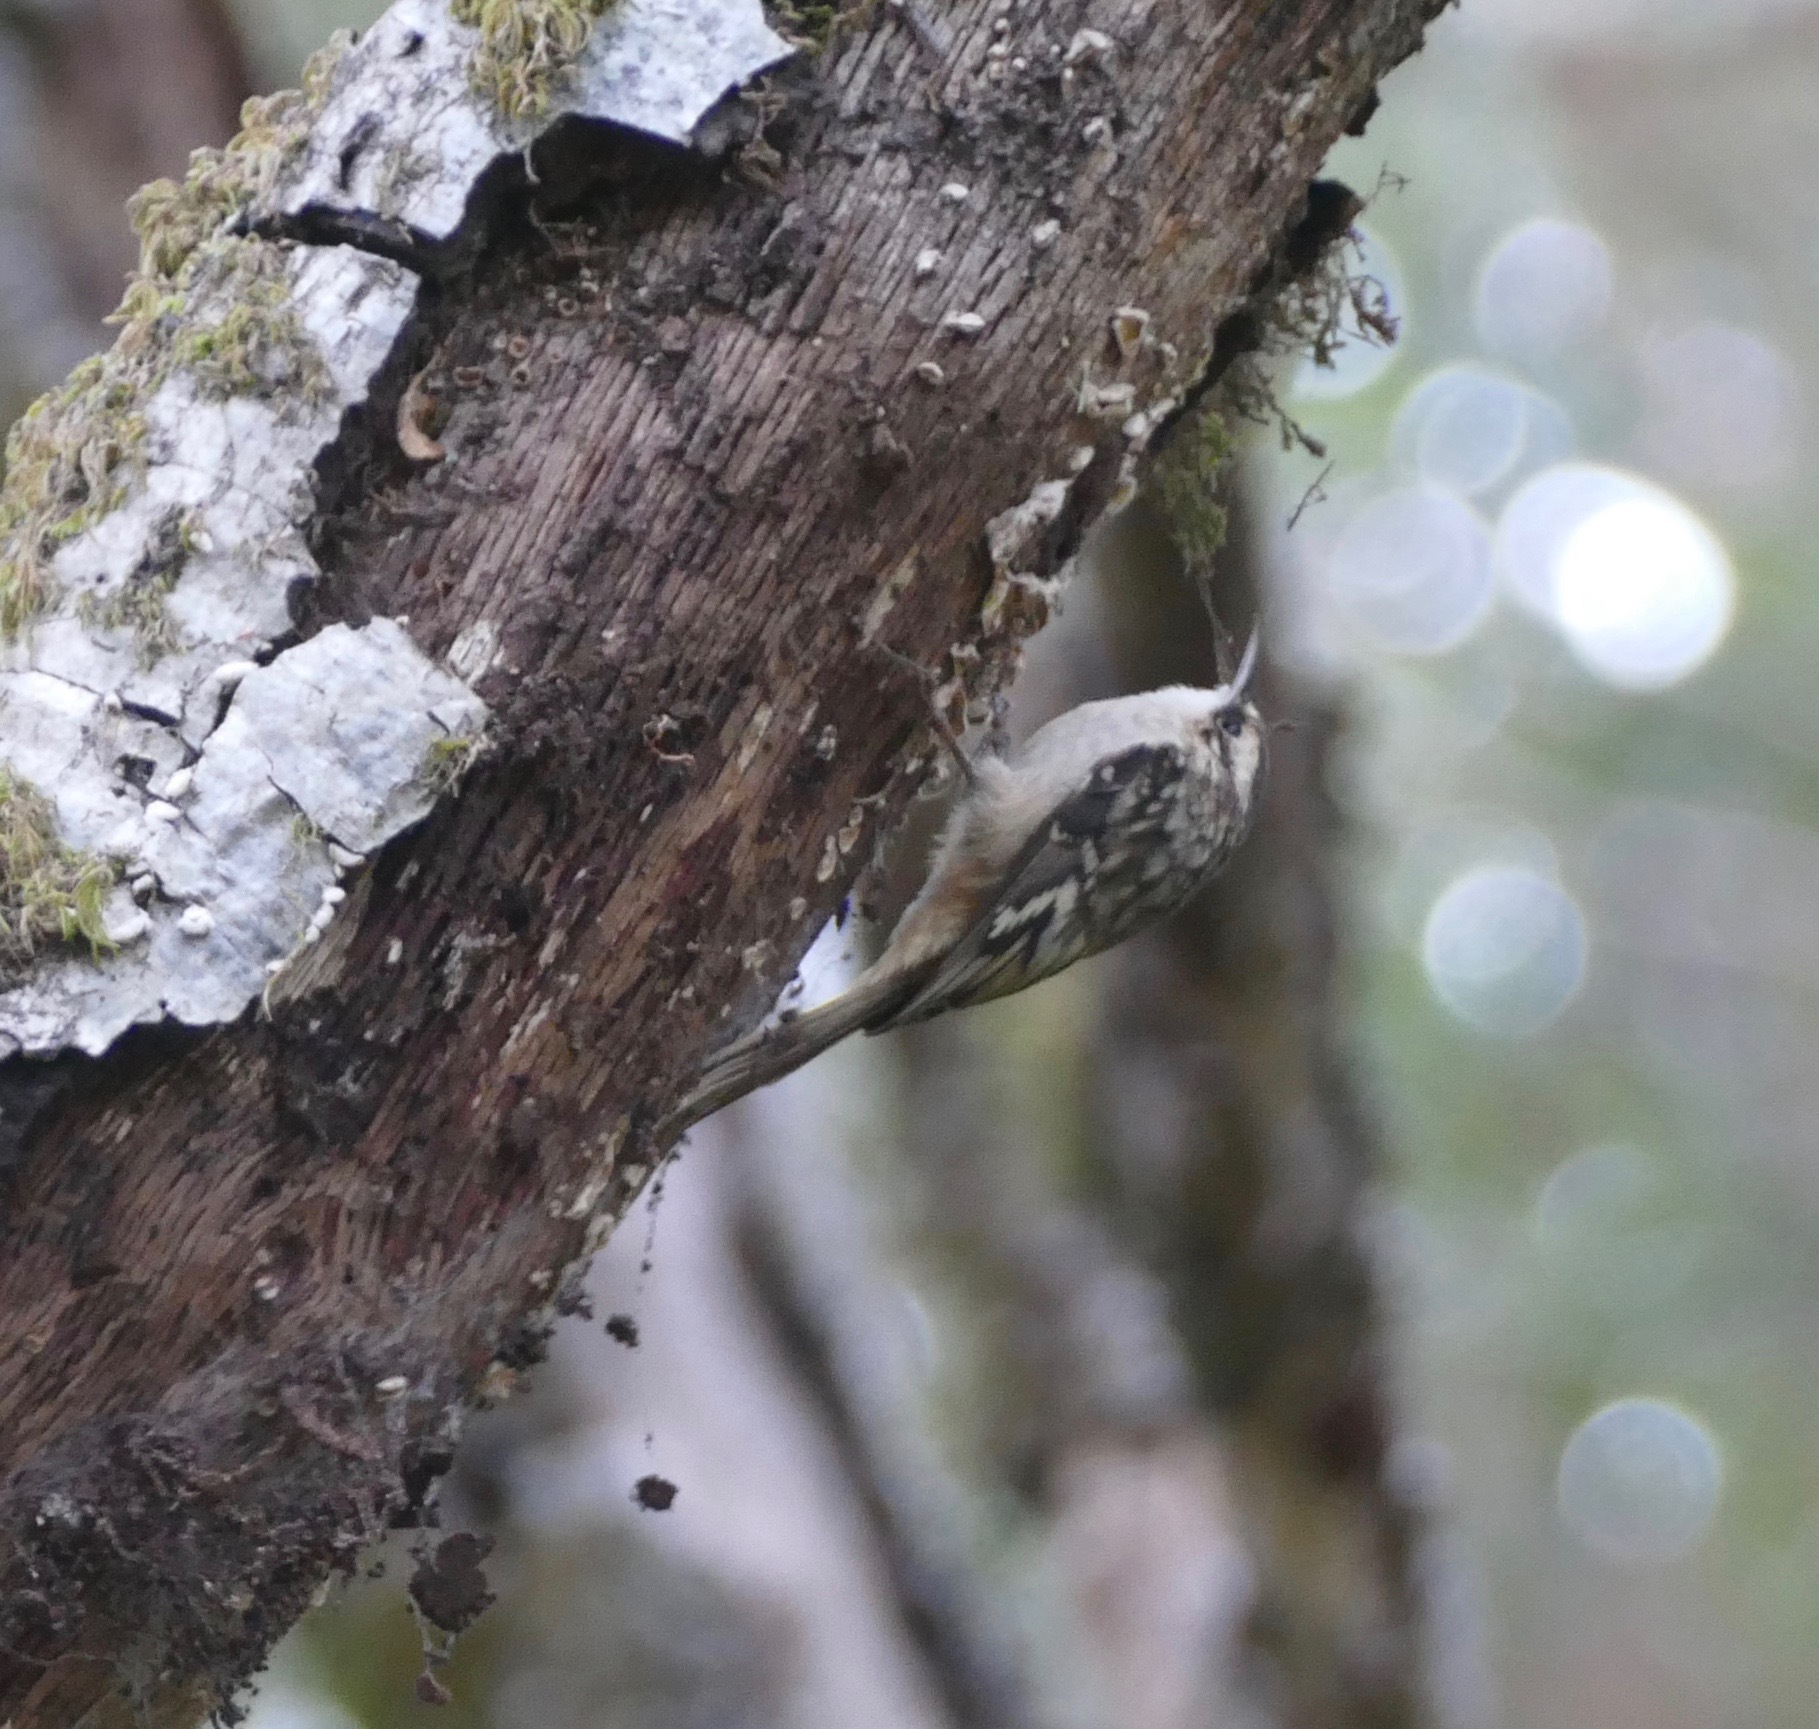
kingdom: Animalia
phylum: Chordata
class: Aves
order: Passeriformes
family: Certhiidae
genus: Certhia
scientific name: Certhia americana
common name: Brown creeper
